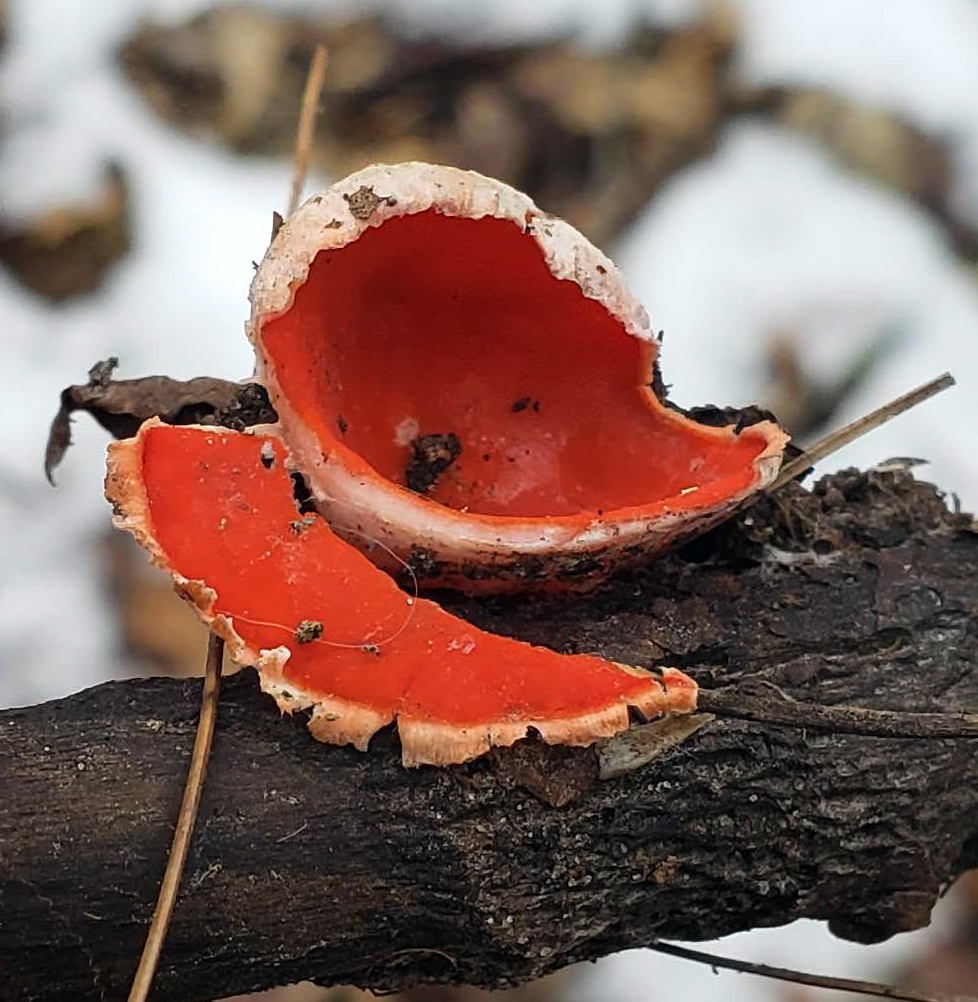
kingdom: Fungi
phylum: Ascomycota
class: Pezizomycetes
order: Pezizales
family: Sarcoscyphaceae
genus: Sarcoscypha
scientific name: Sarcoscypha
